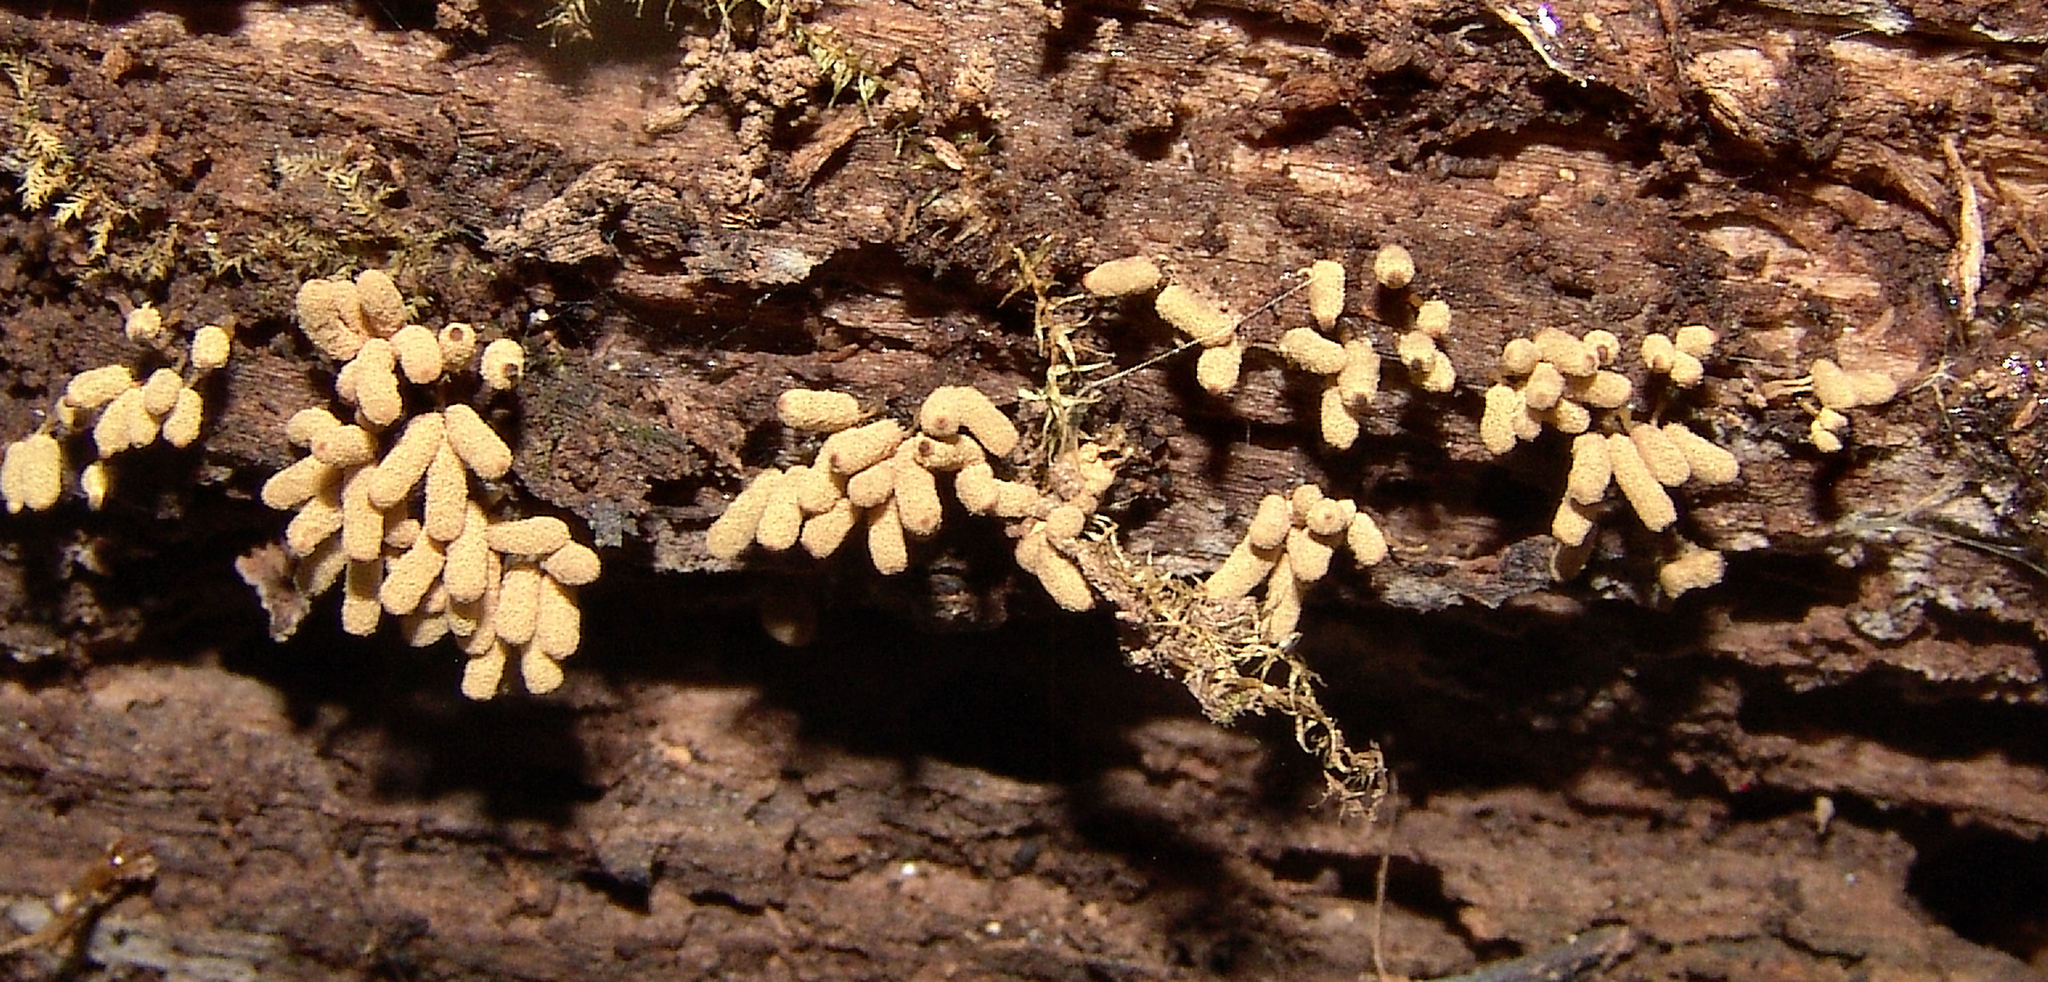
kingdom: Protozoa
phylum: Mycetozoa
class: Myxomycetes
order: Trichiales
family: Arcyriaceae
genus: Arcyria
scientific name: Arcyria obvelata
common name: Yellow carnival candy slime
